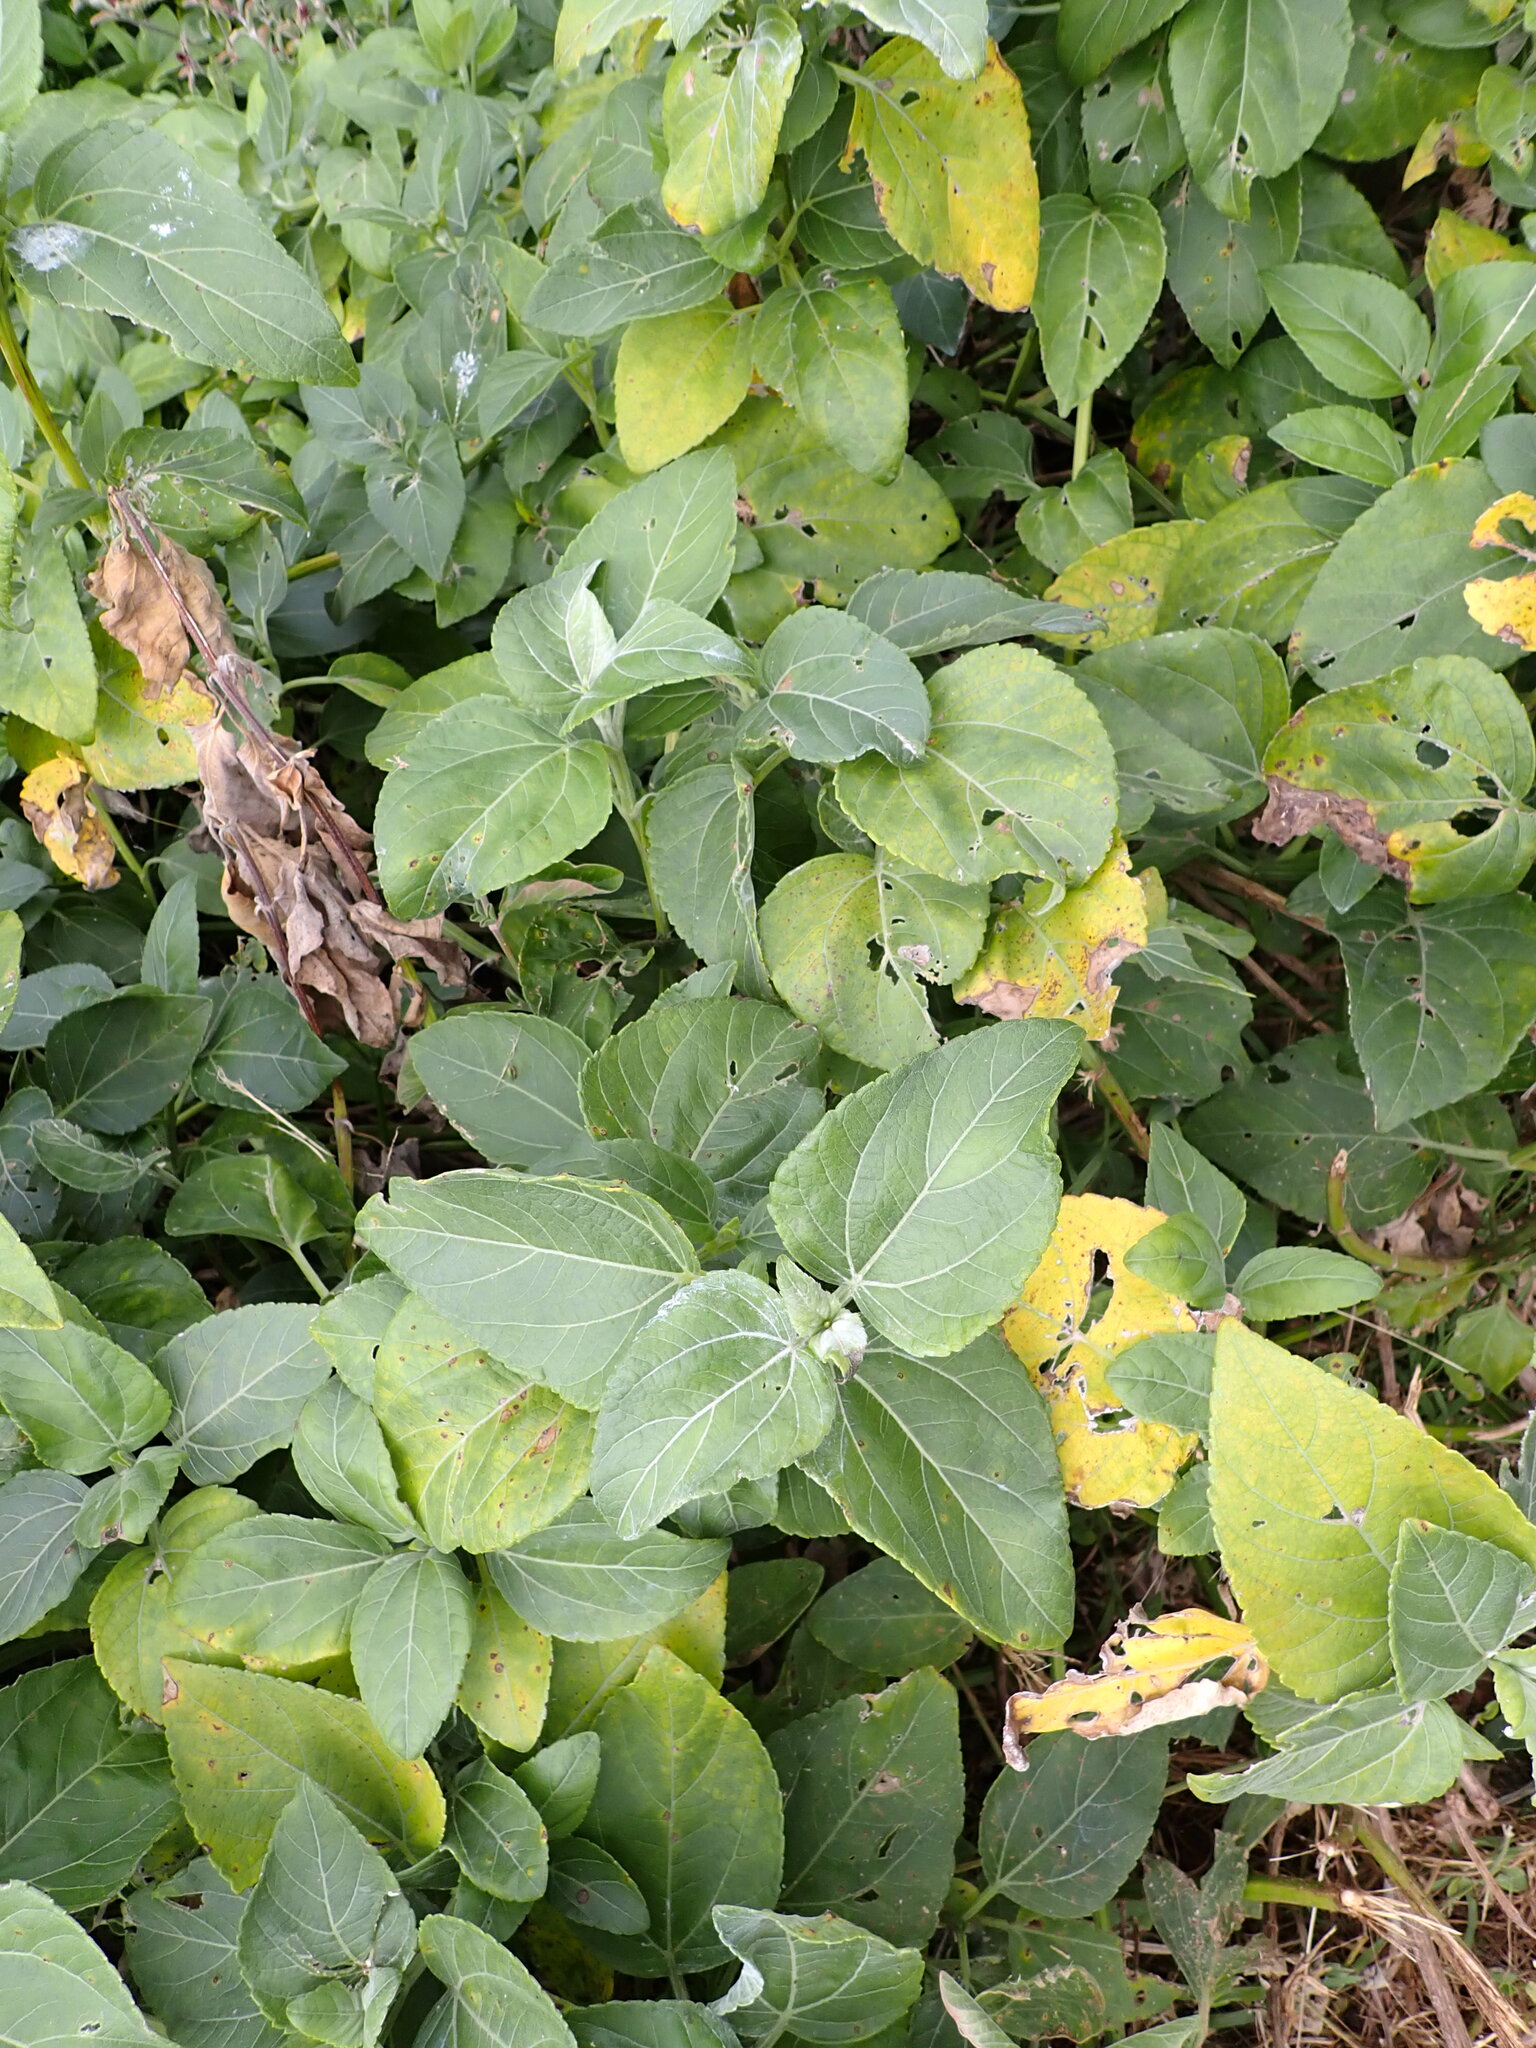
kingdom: Plantae
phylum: Tracheophyta
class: Magnoliopsida
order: Asterales
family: Asteraceae
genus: Wollastonia
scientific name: Wollastonia uniflora
